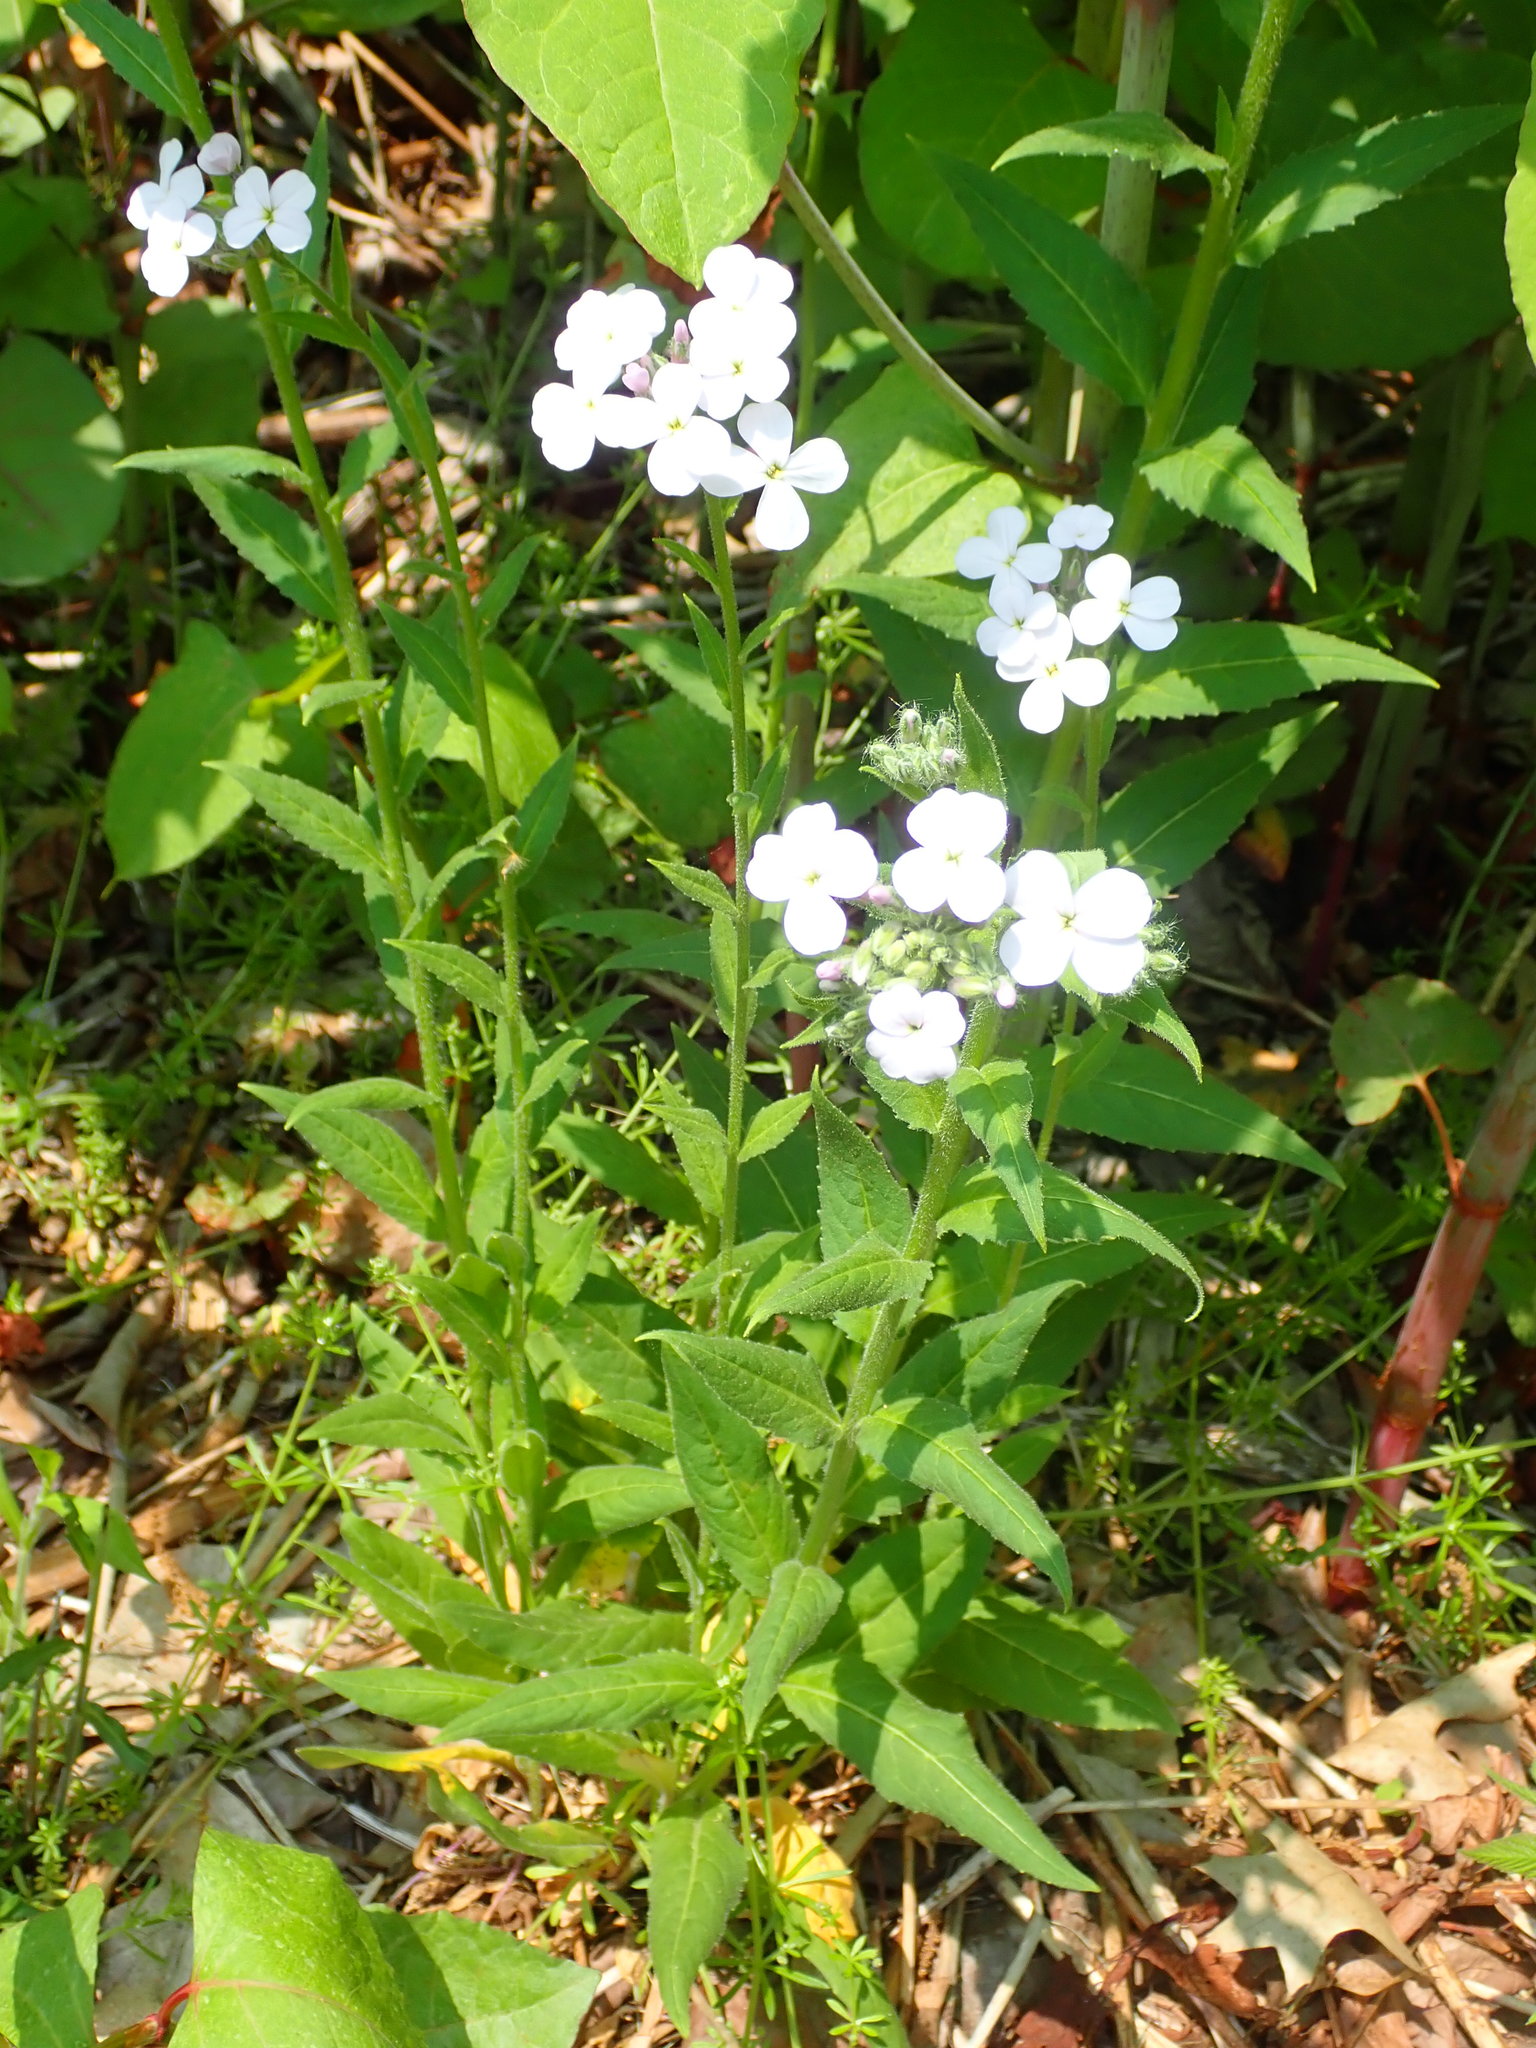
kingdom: Plantae
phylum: Tracheophyta
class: Magnoliopsida
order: Brassicales
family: Brassicaceae
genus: Hesperis
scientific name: Hesperis matronalis
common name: Dame's-violet
